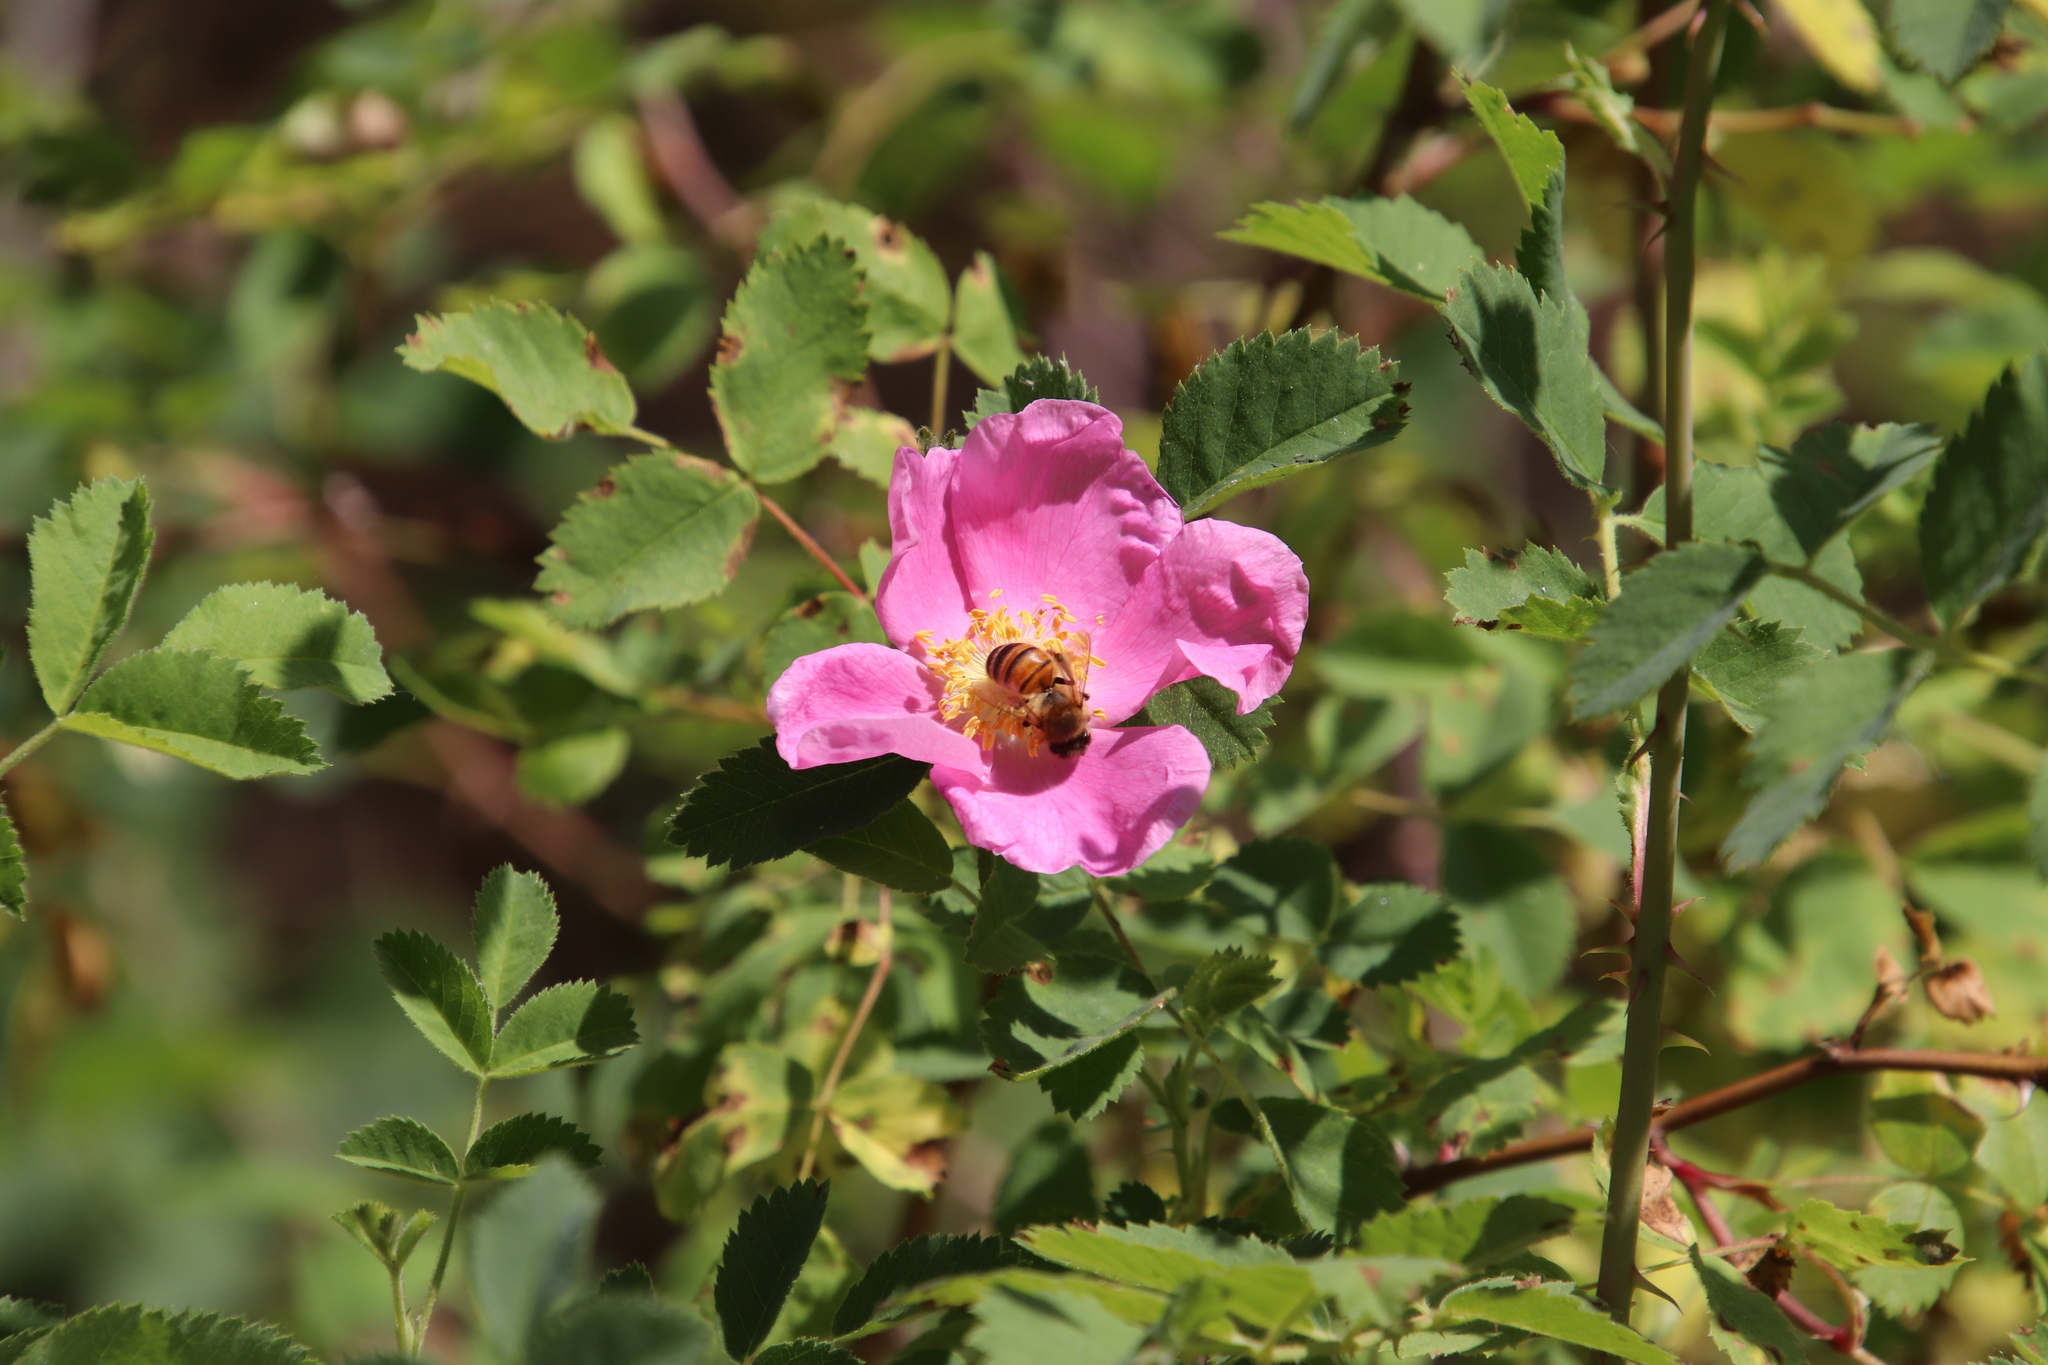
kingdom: Plantae
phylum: Tracheophyta
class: Magnoliopsida
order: Rosales
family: Rosaceae
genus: Rosa
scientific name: Rosa californica
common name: California rose
